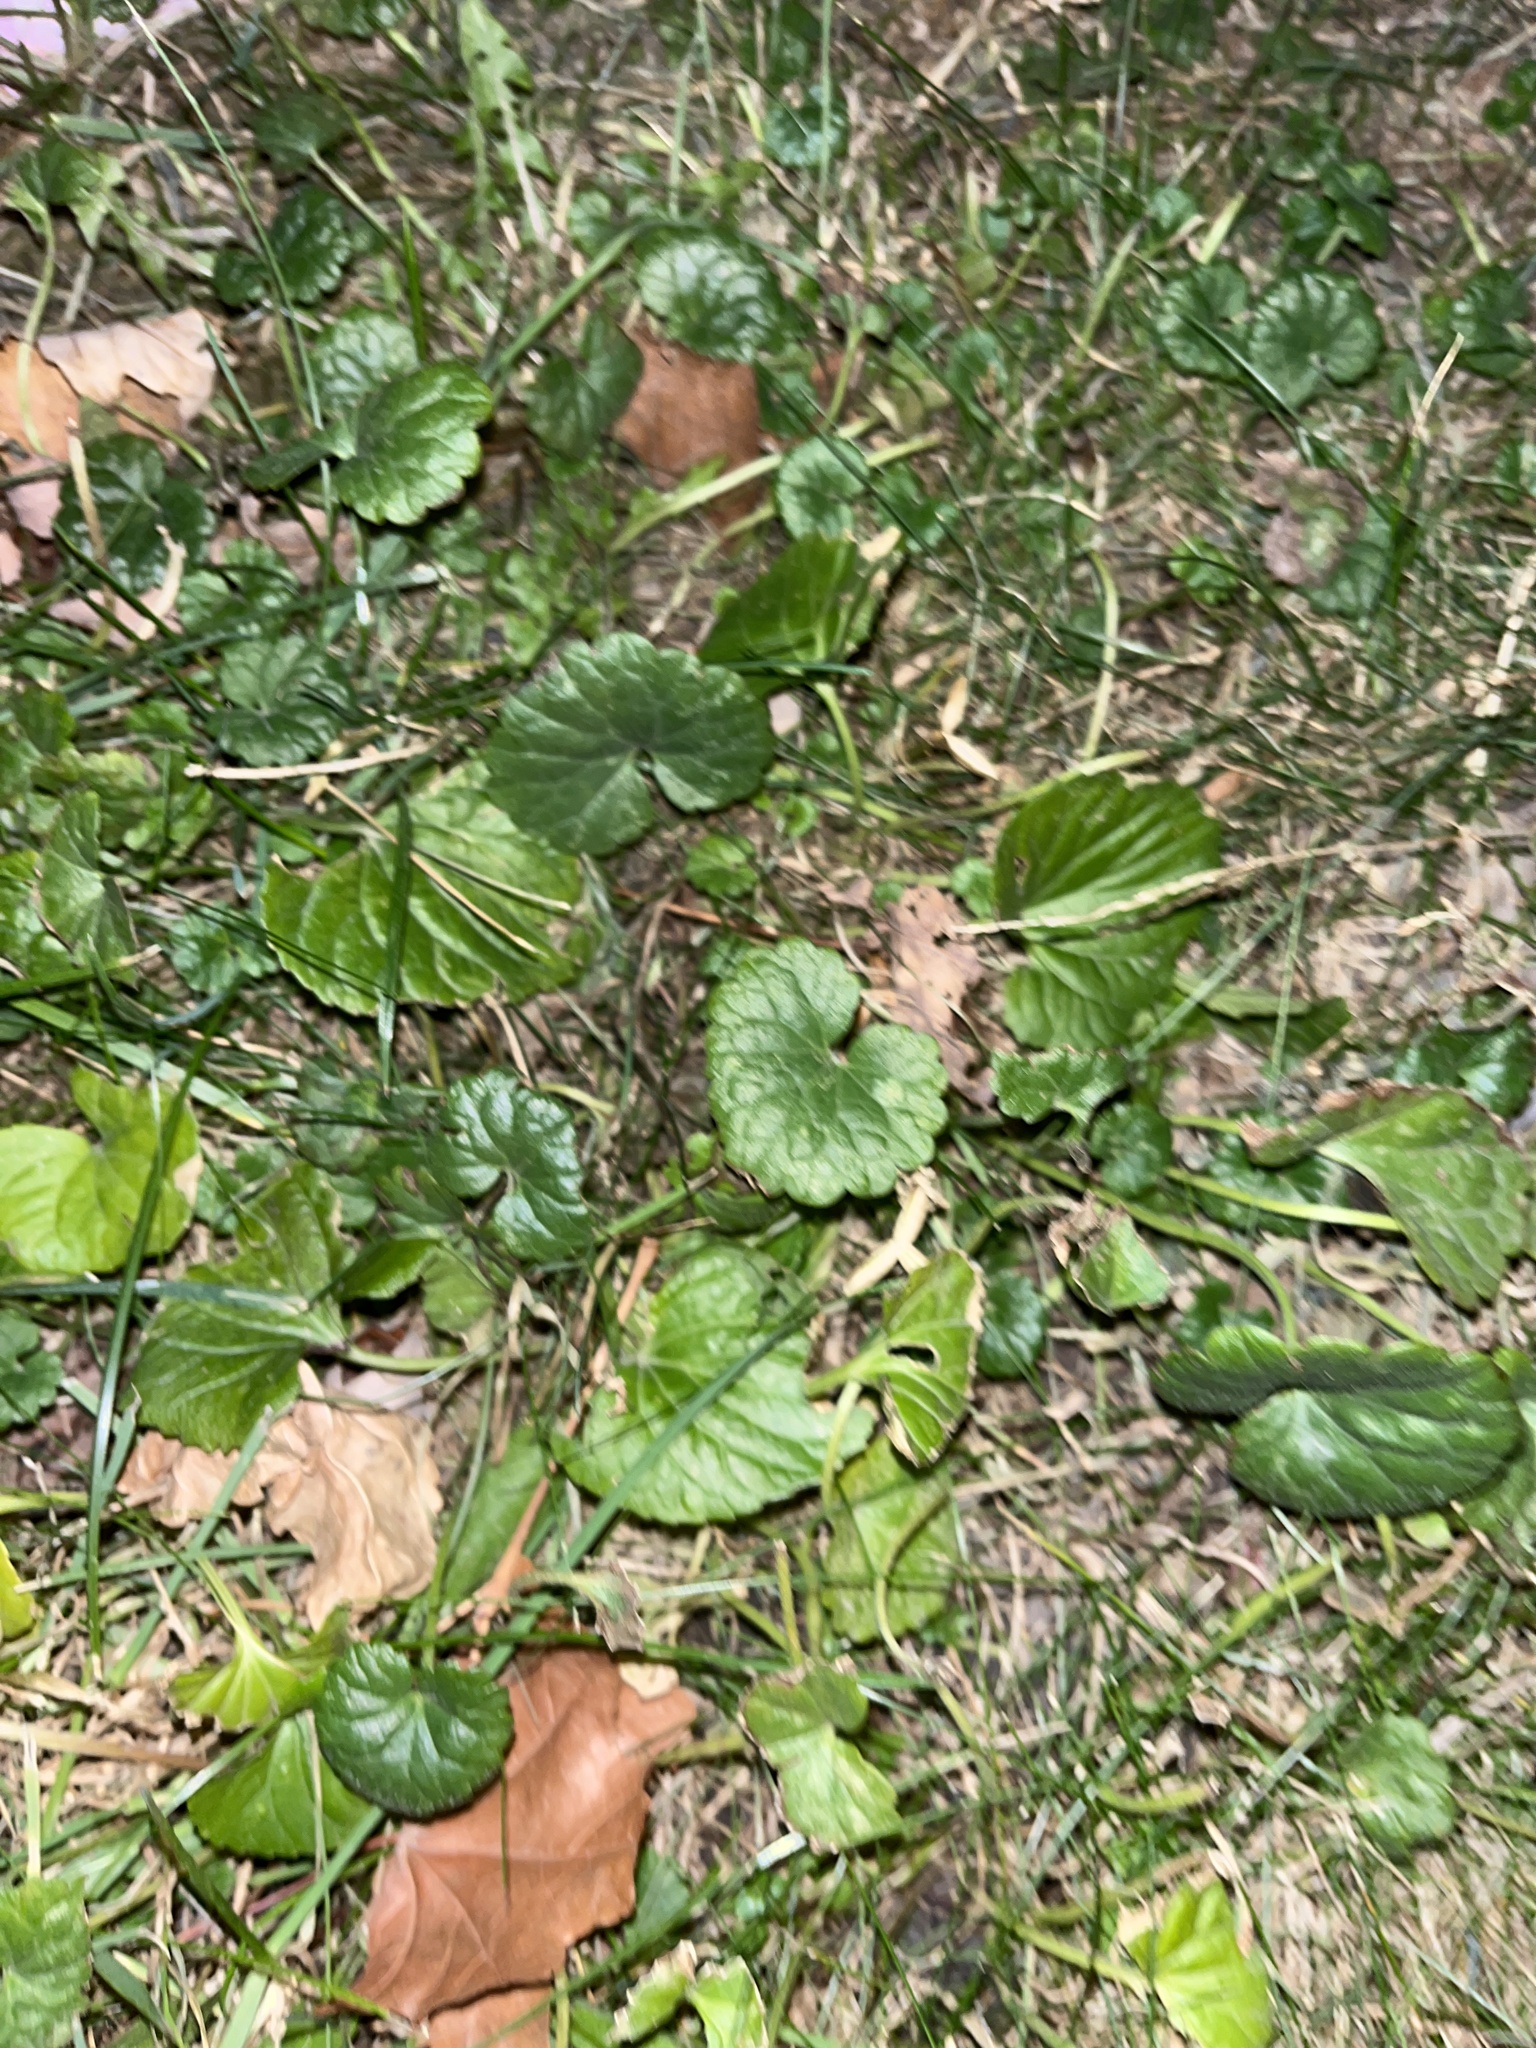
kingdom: Plantae
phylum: Tracheophyta
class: Magnoliopsida
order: Lamiales
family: Lamiaceae
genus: Glechoma
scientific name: Glechoma hederacea
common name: Ground ivy
